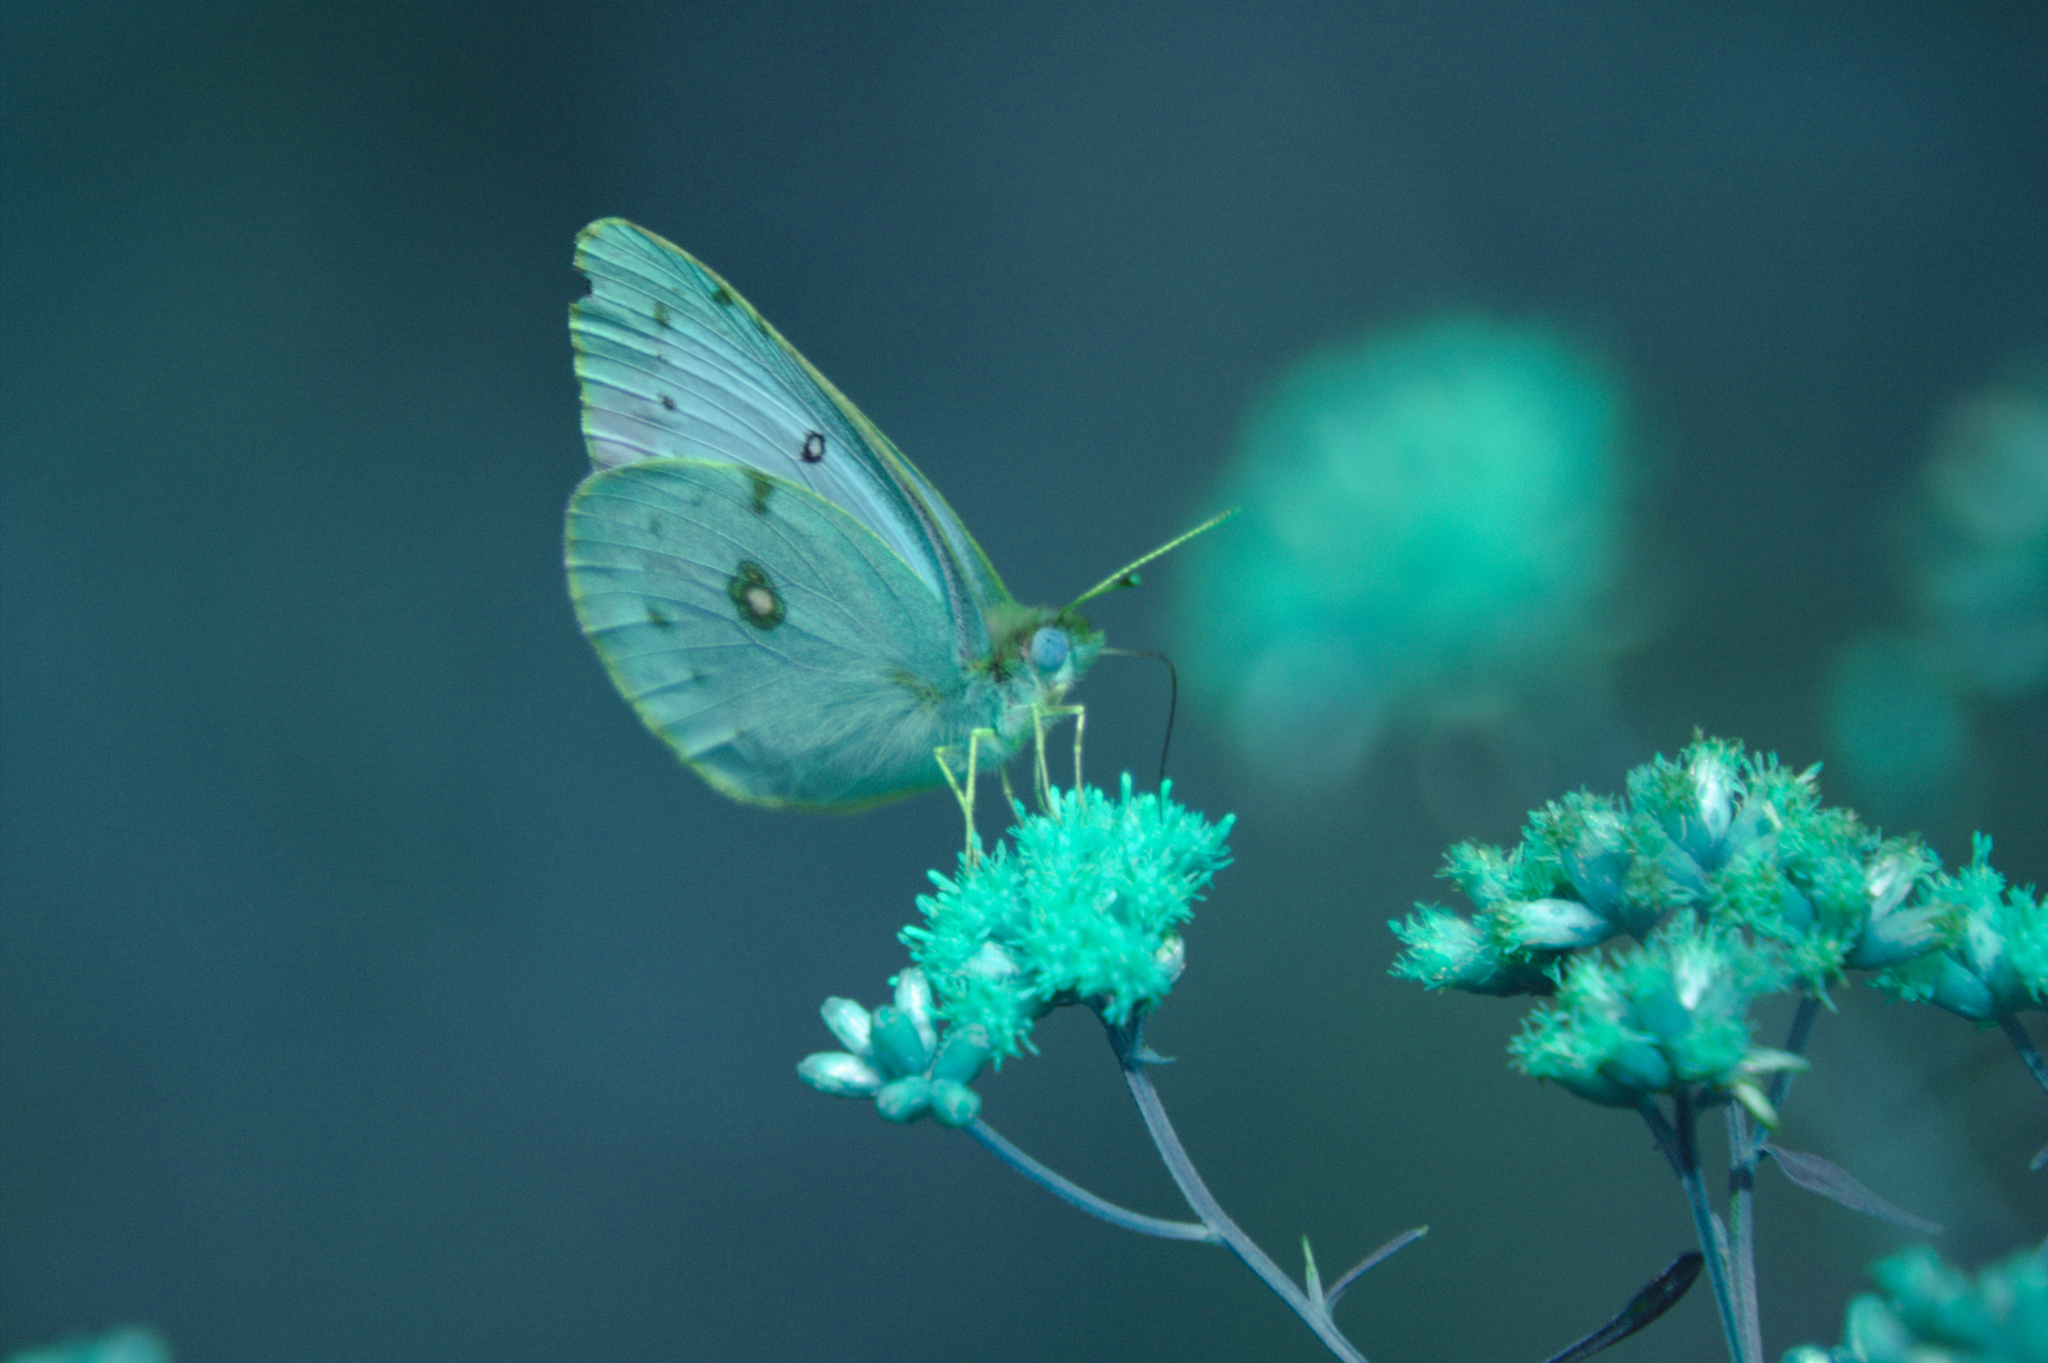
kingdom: Animalia
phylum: Arthropoda
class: Insecta
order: Lepidoptera
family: Pieridae
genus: Colias
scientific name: Colias philodice
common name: Clouded sulphur
